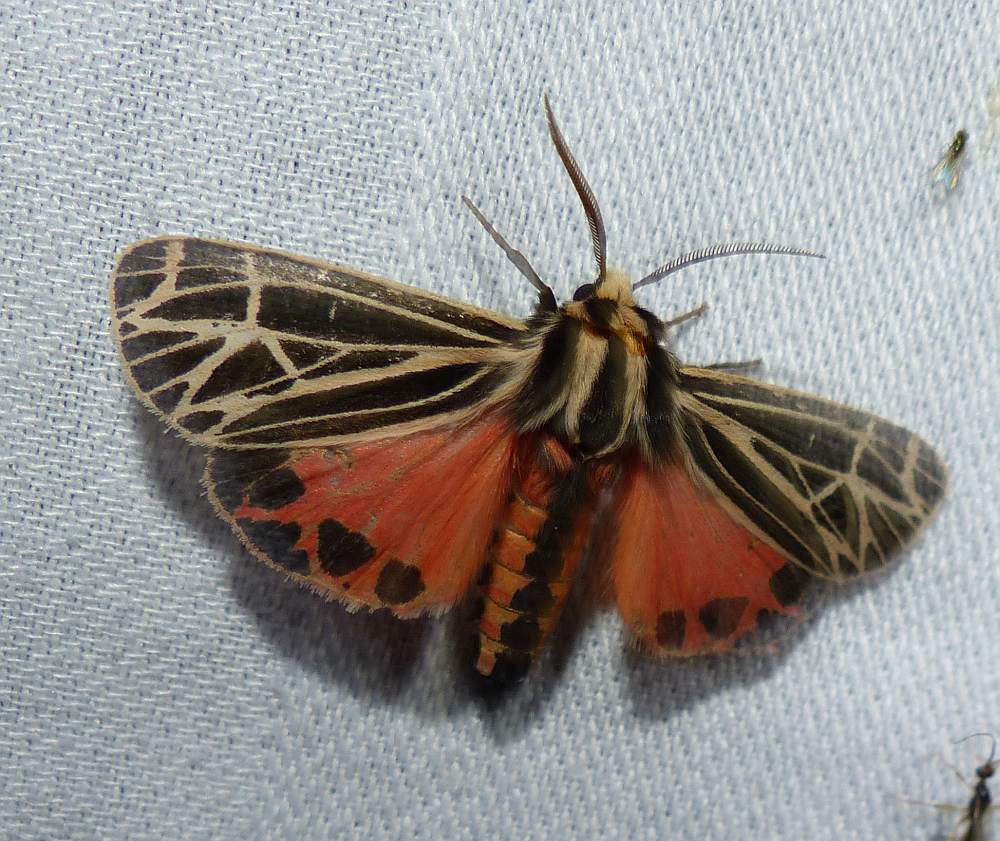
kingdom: Animalia
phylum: Arthropoda
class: Insecta
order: Lepidoptera
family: Erebidae
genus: Grammia
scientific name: Grammia parthenice
